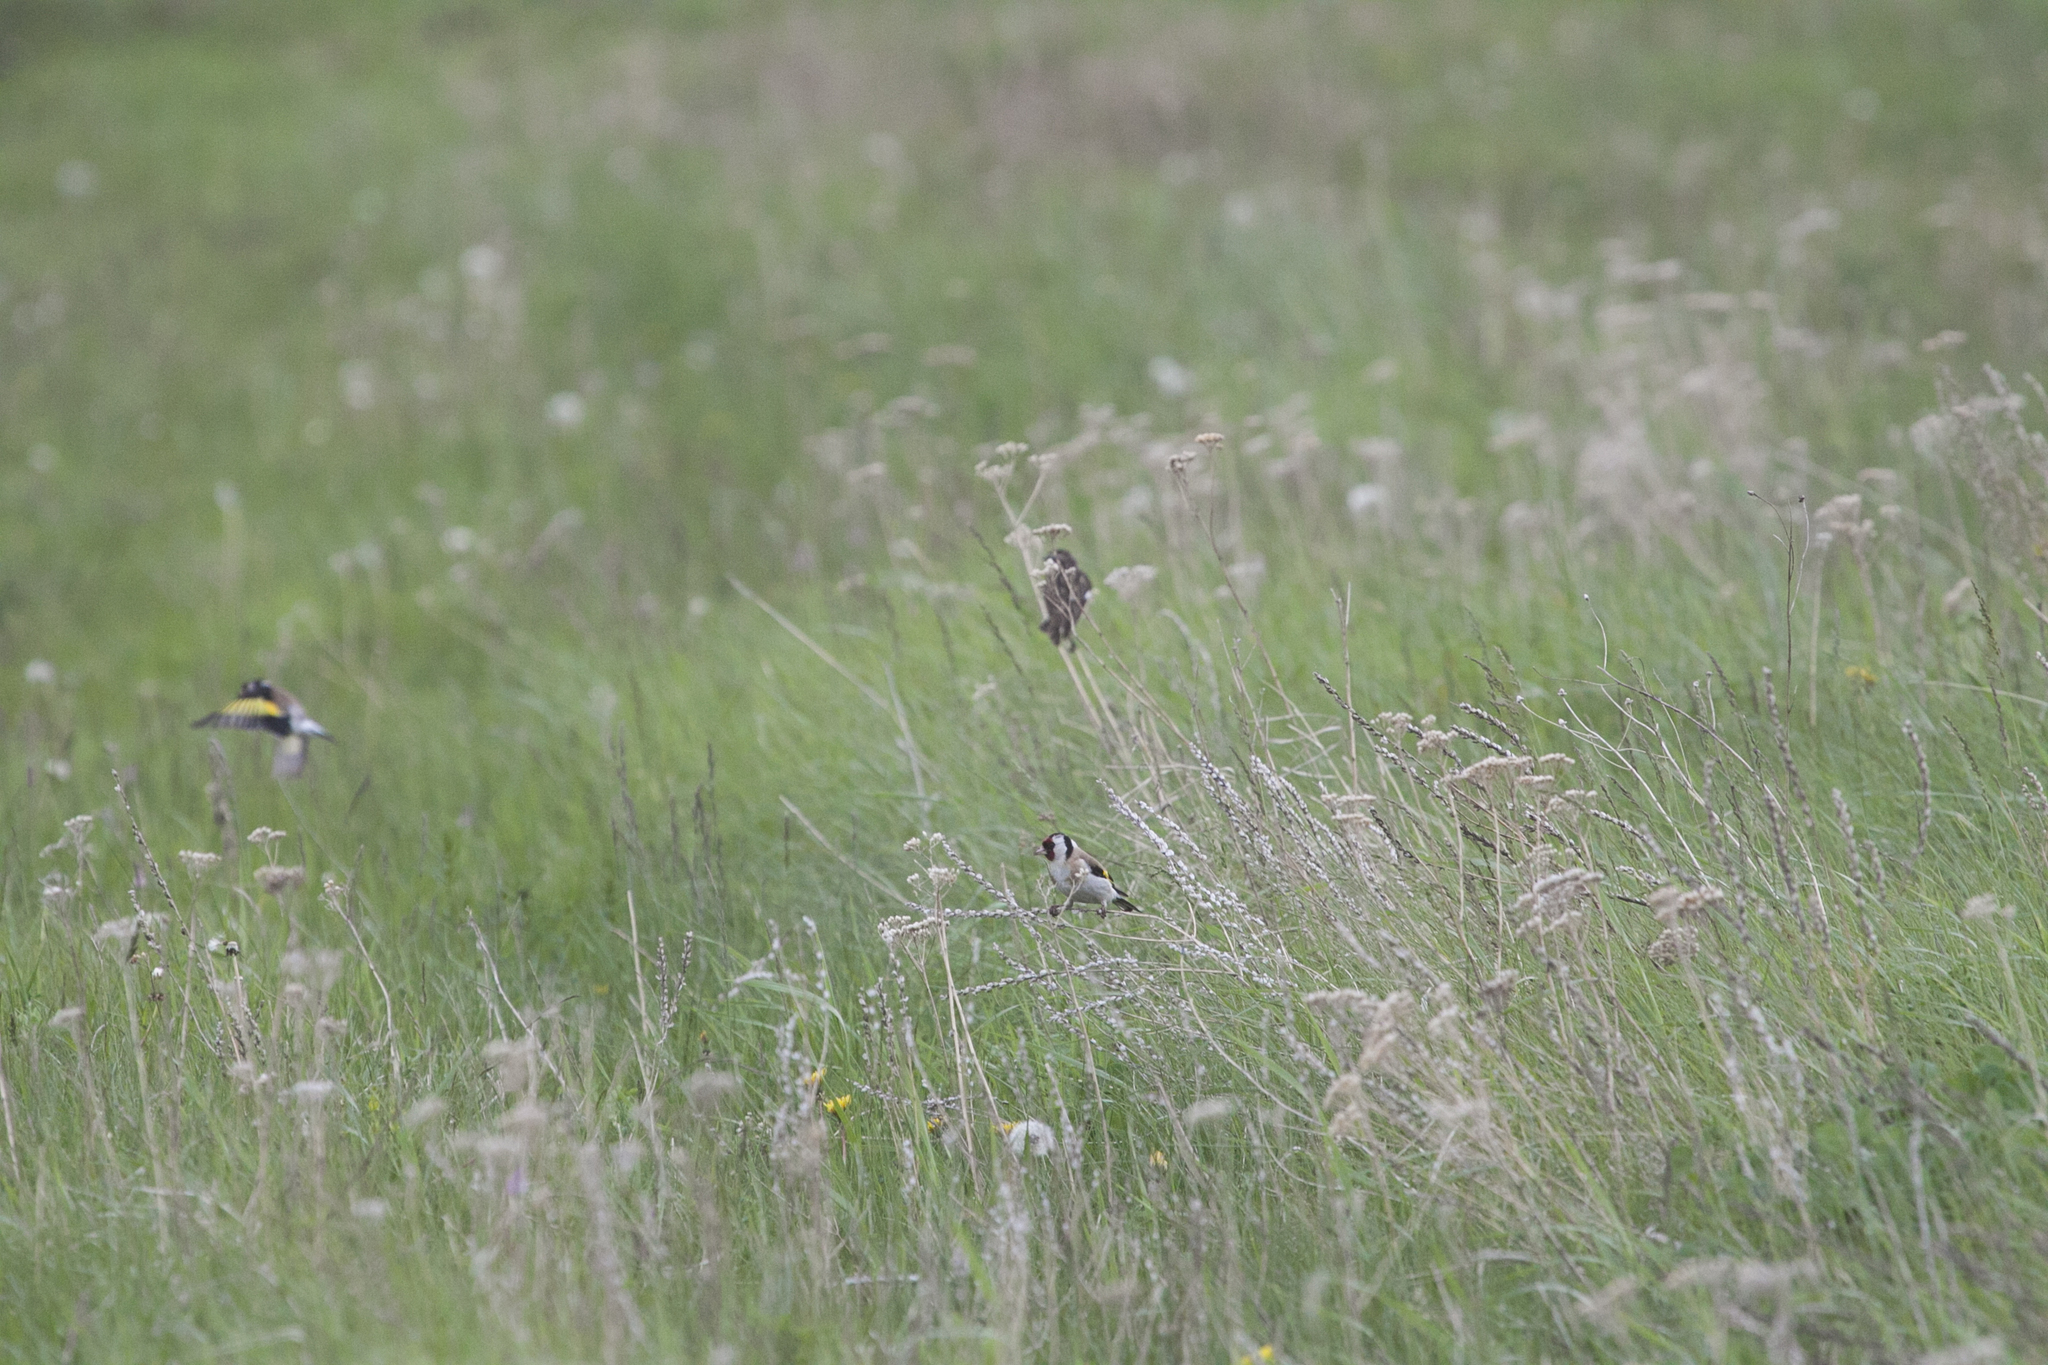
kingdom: Animalia
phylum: Chordata
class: Aves
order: Passeriformes
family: Fringillidae
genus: Carduelis
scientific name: Carduelis carduelis
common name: European goldfinch
